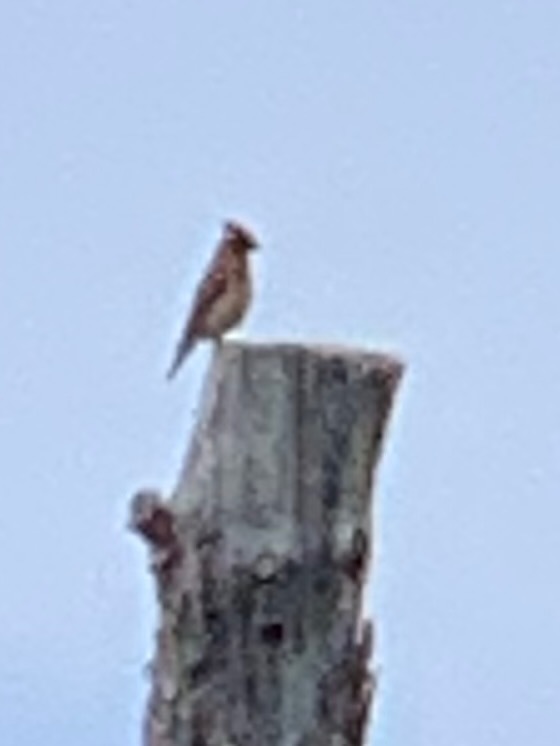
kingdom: Animalia
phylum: Chordata
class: Aves
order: Passeriformes
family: Bombycillidae
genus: Bombycilla
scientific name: Bombycilla cedrorum
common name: Cedar waxwing
